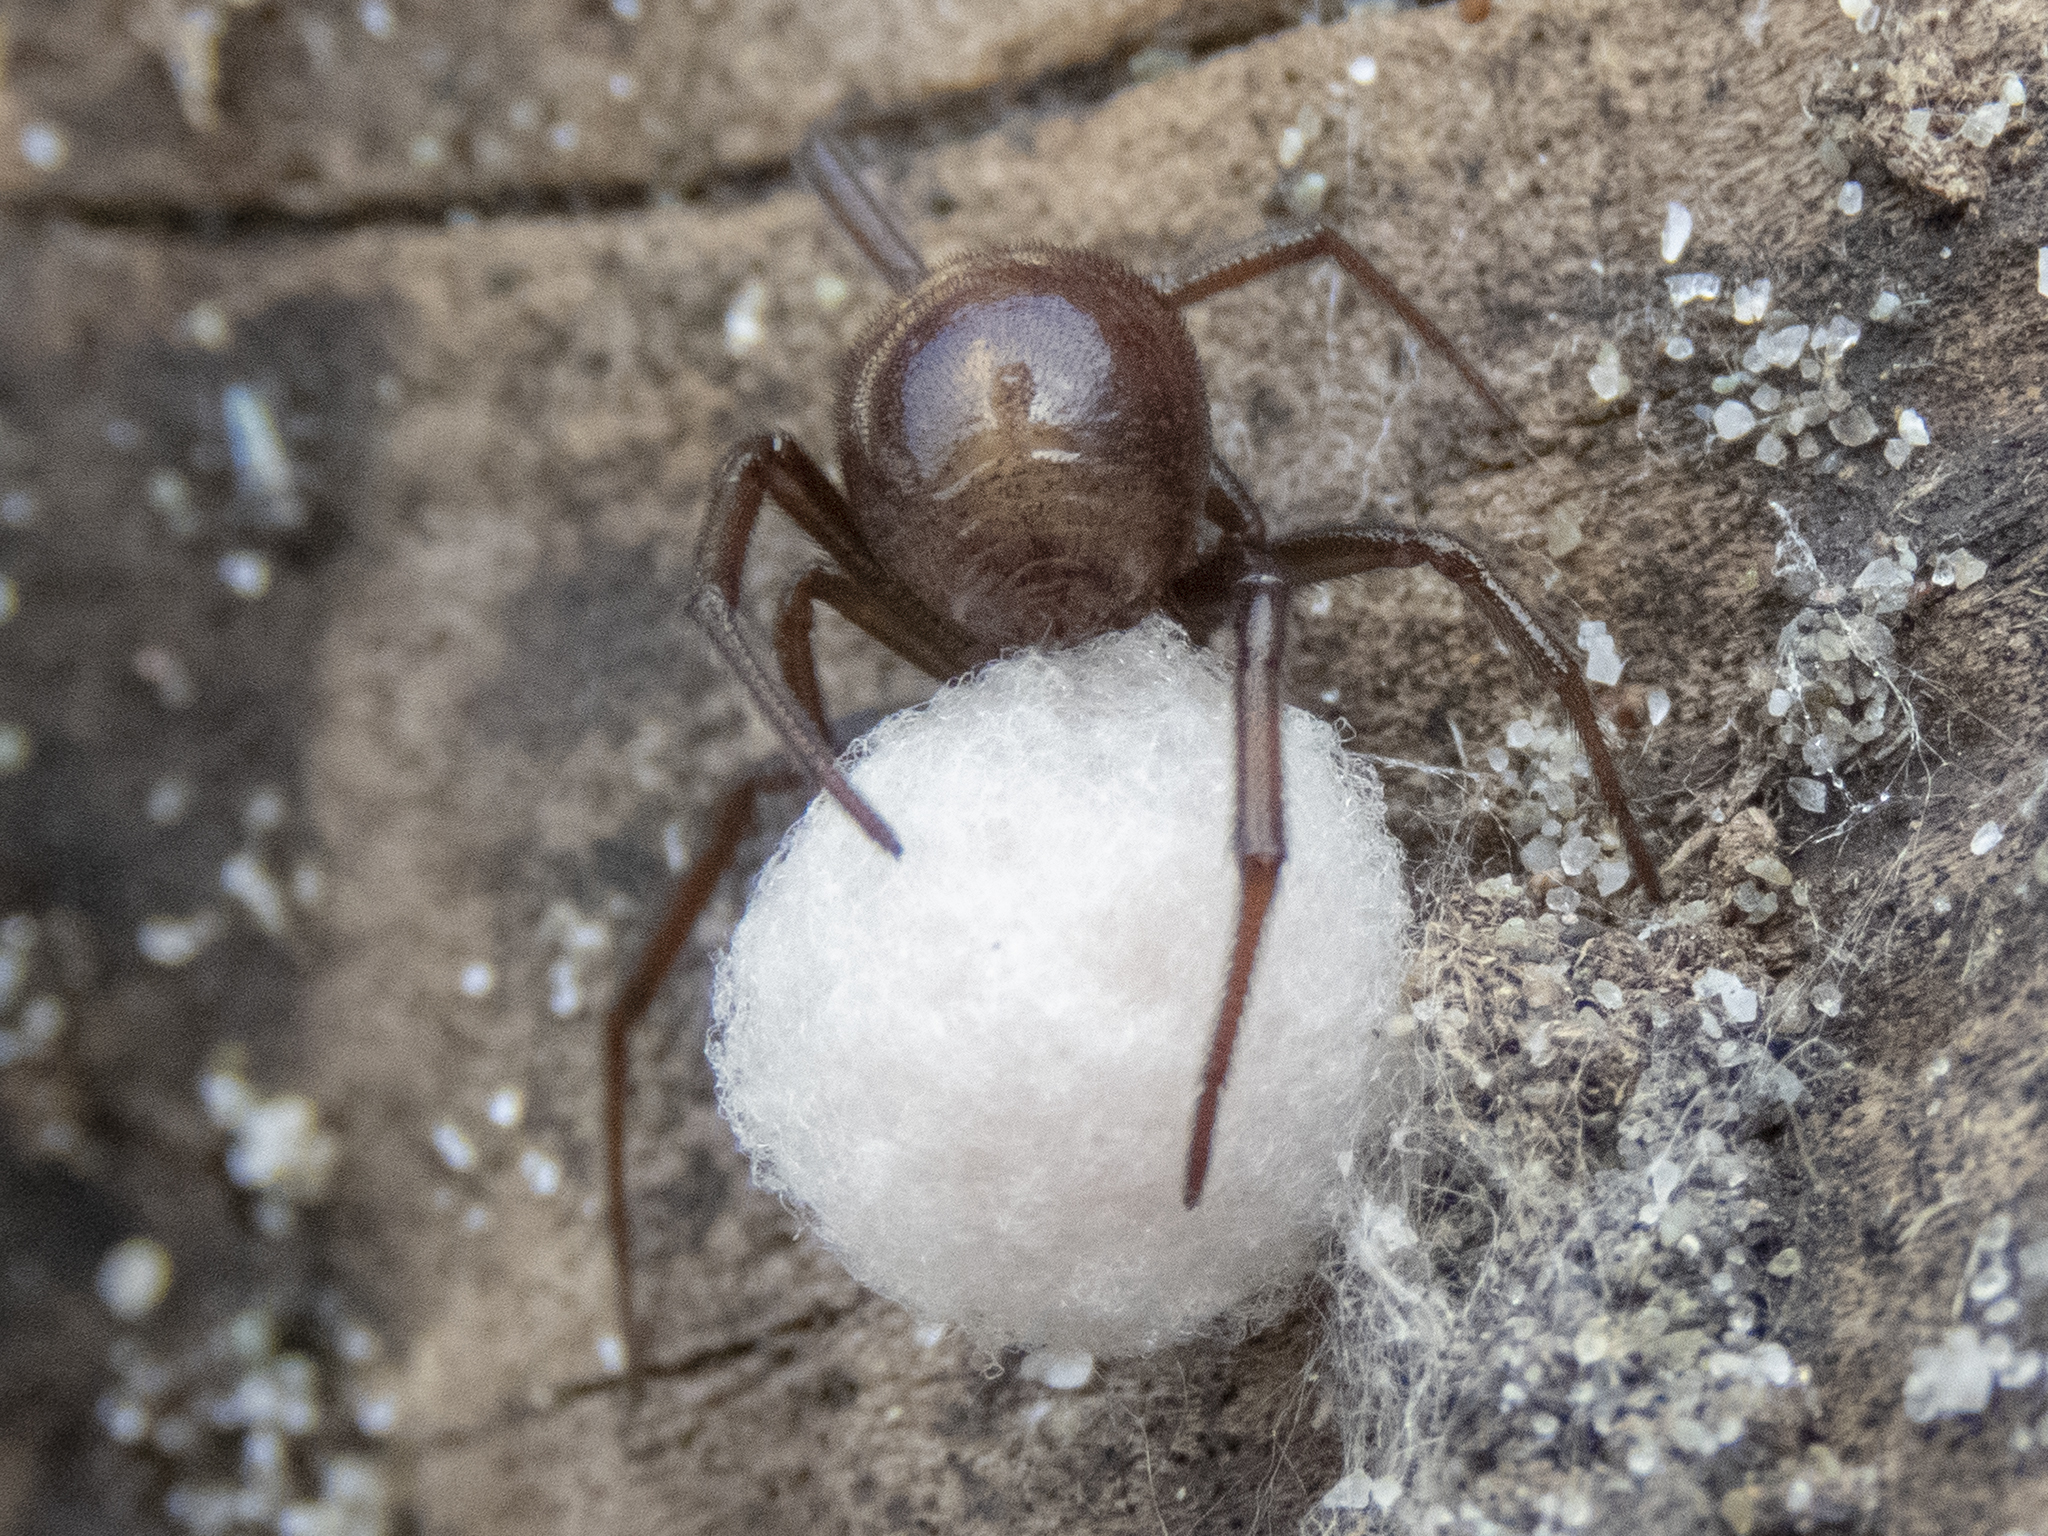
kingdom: Animalia
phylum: Arthropoda
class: Arachnida
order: Araneae
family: Theridiidae
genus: Steatoda
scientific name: Steatoda capensis
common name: Cobweb weaver
